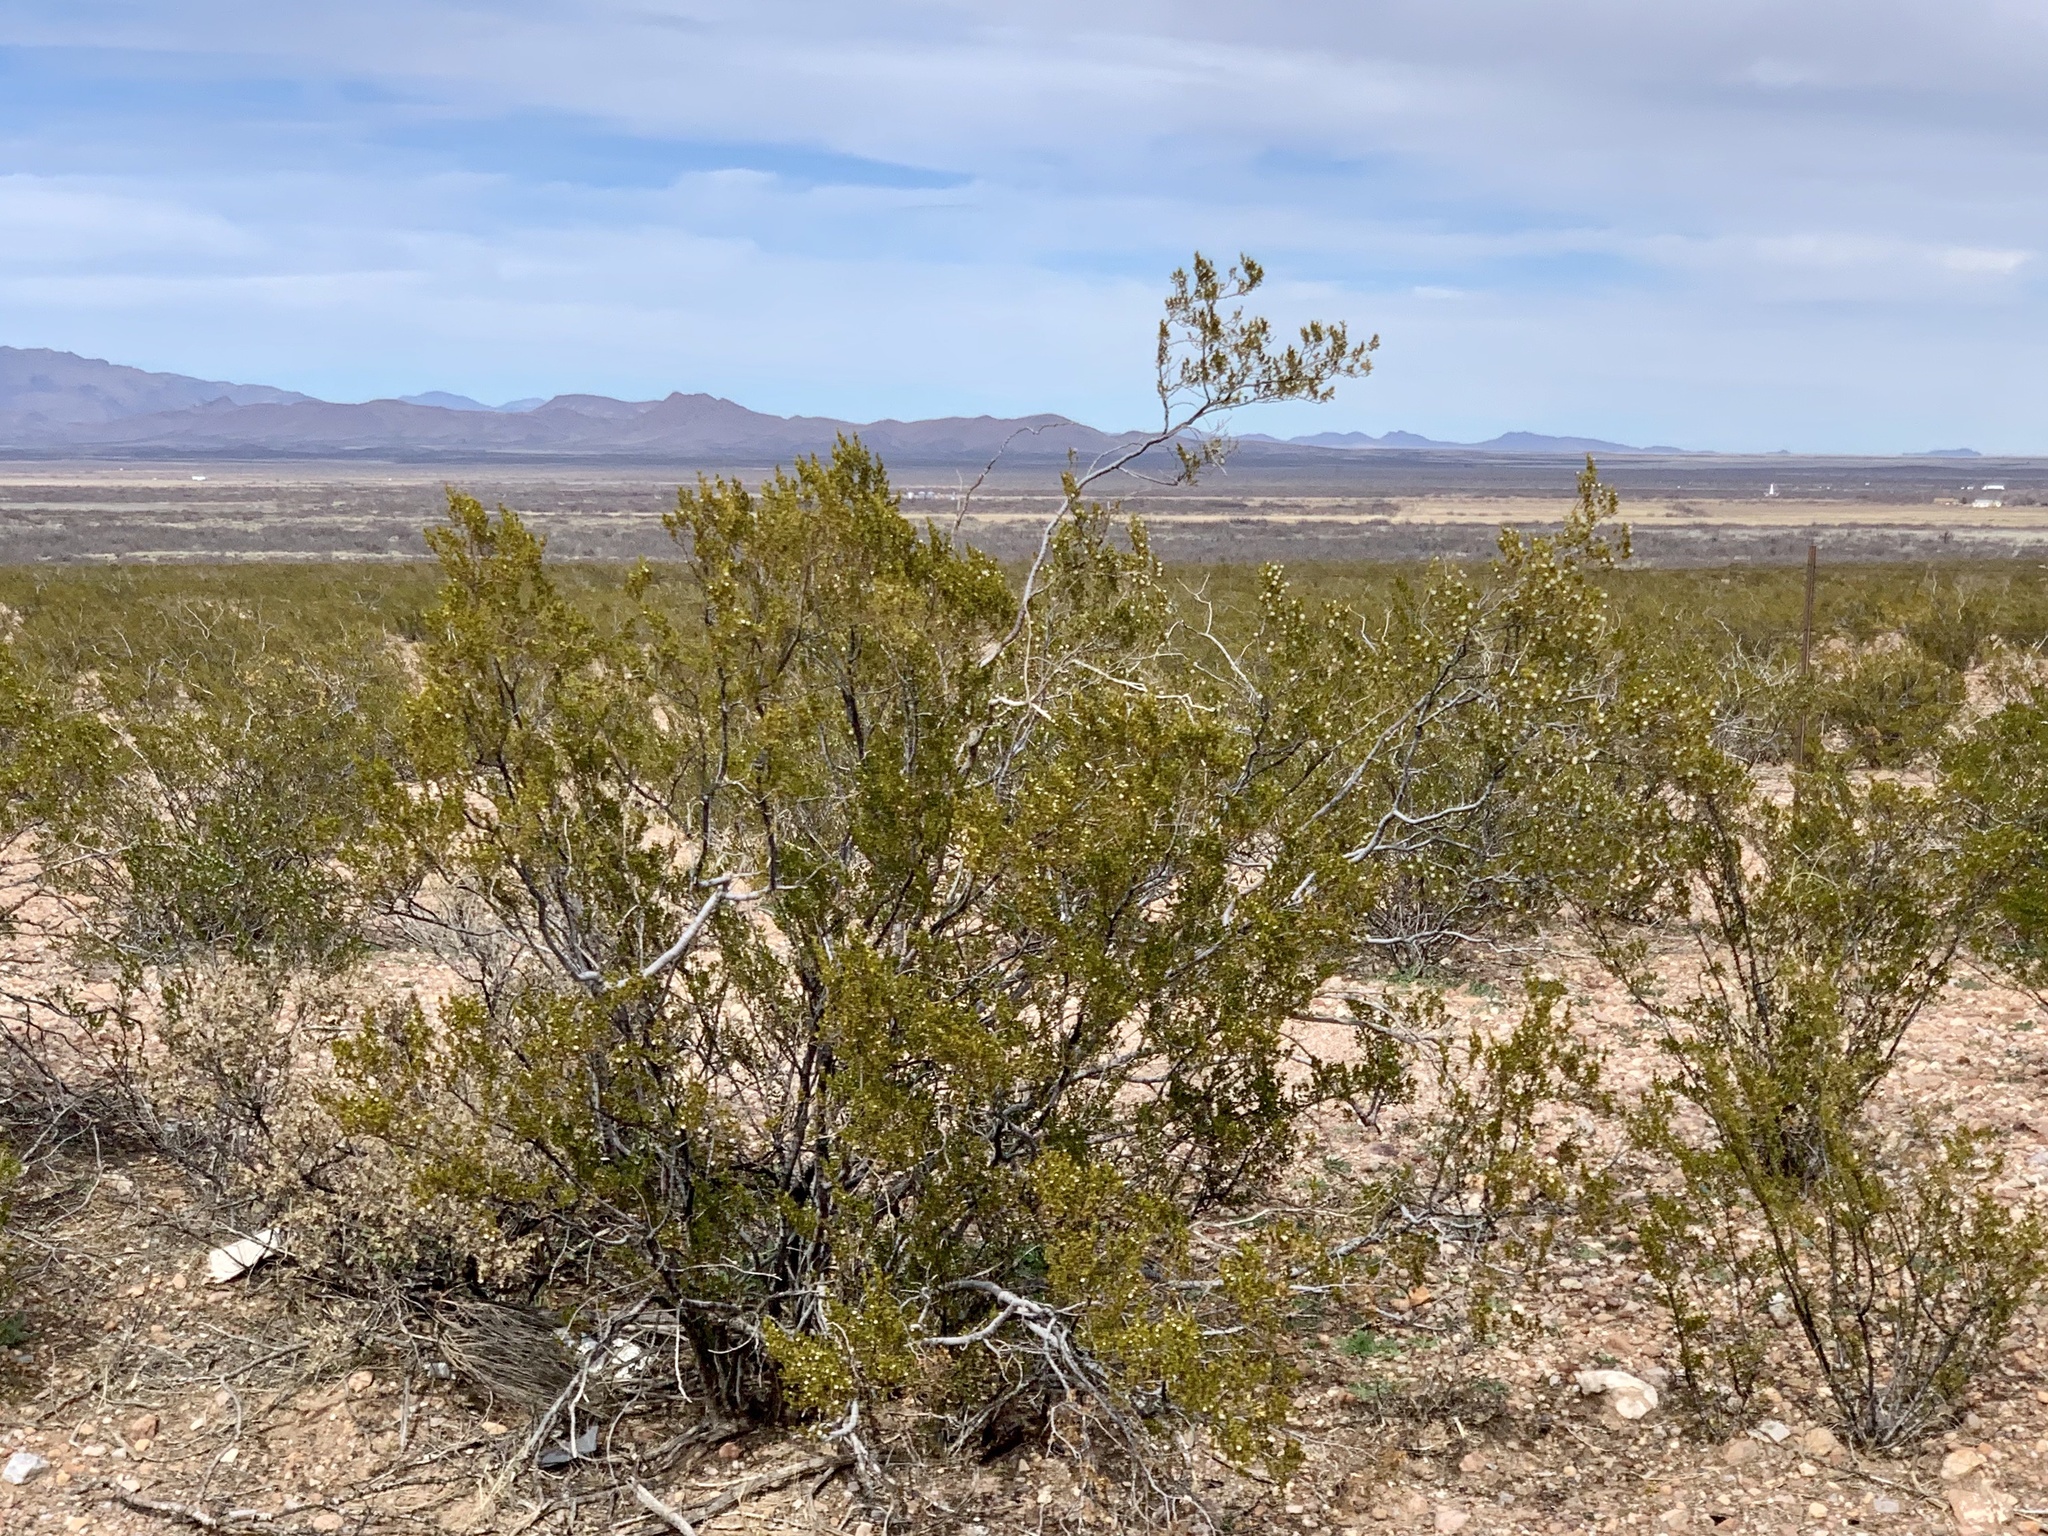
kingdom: Plantae
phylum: Tracheophyta
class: Magnoliopsida
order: Zygophyllales
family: Zygophyllaceae
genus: Larrea
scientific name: Larrea tridentata
